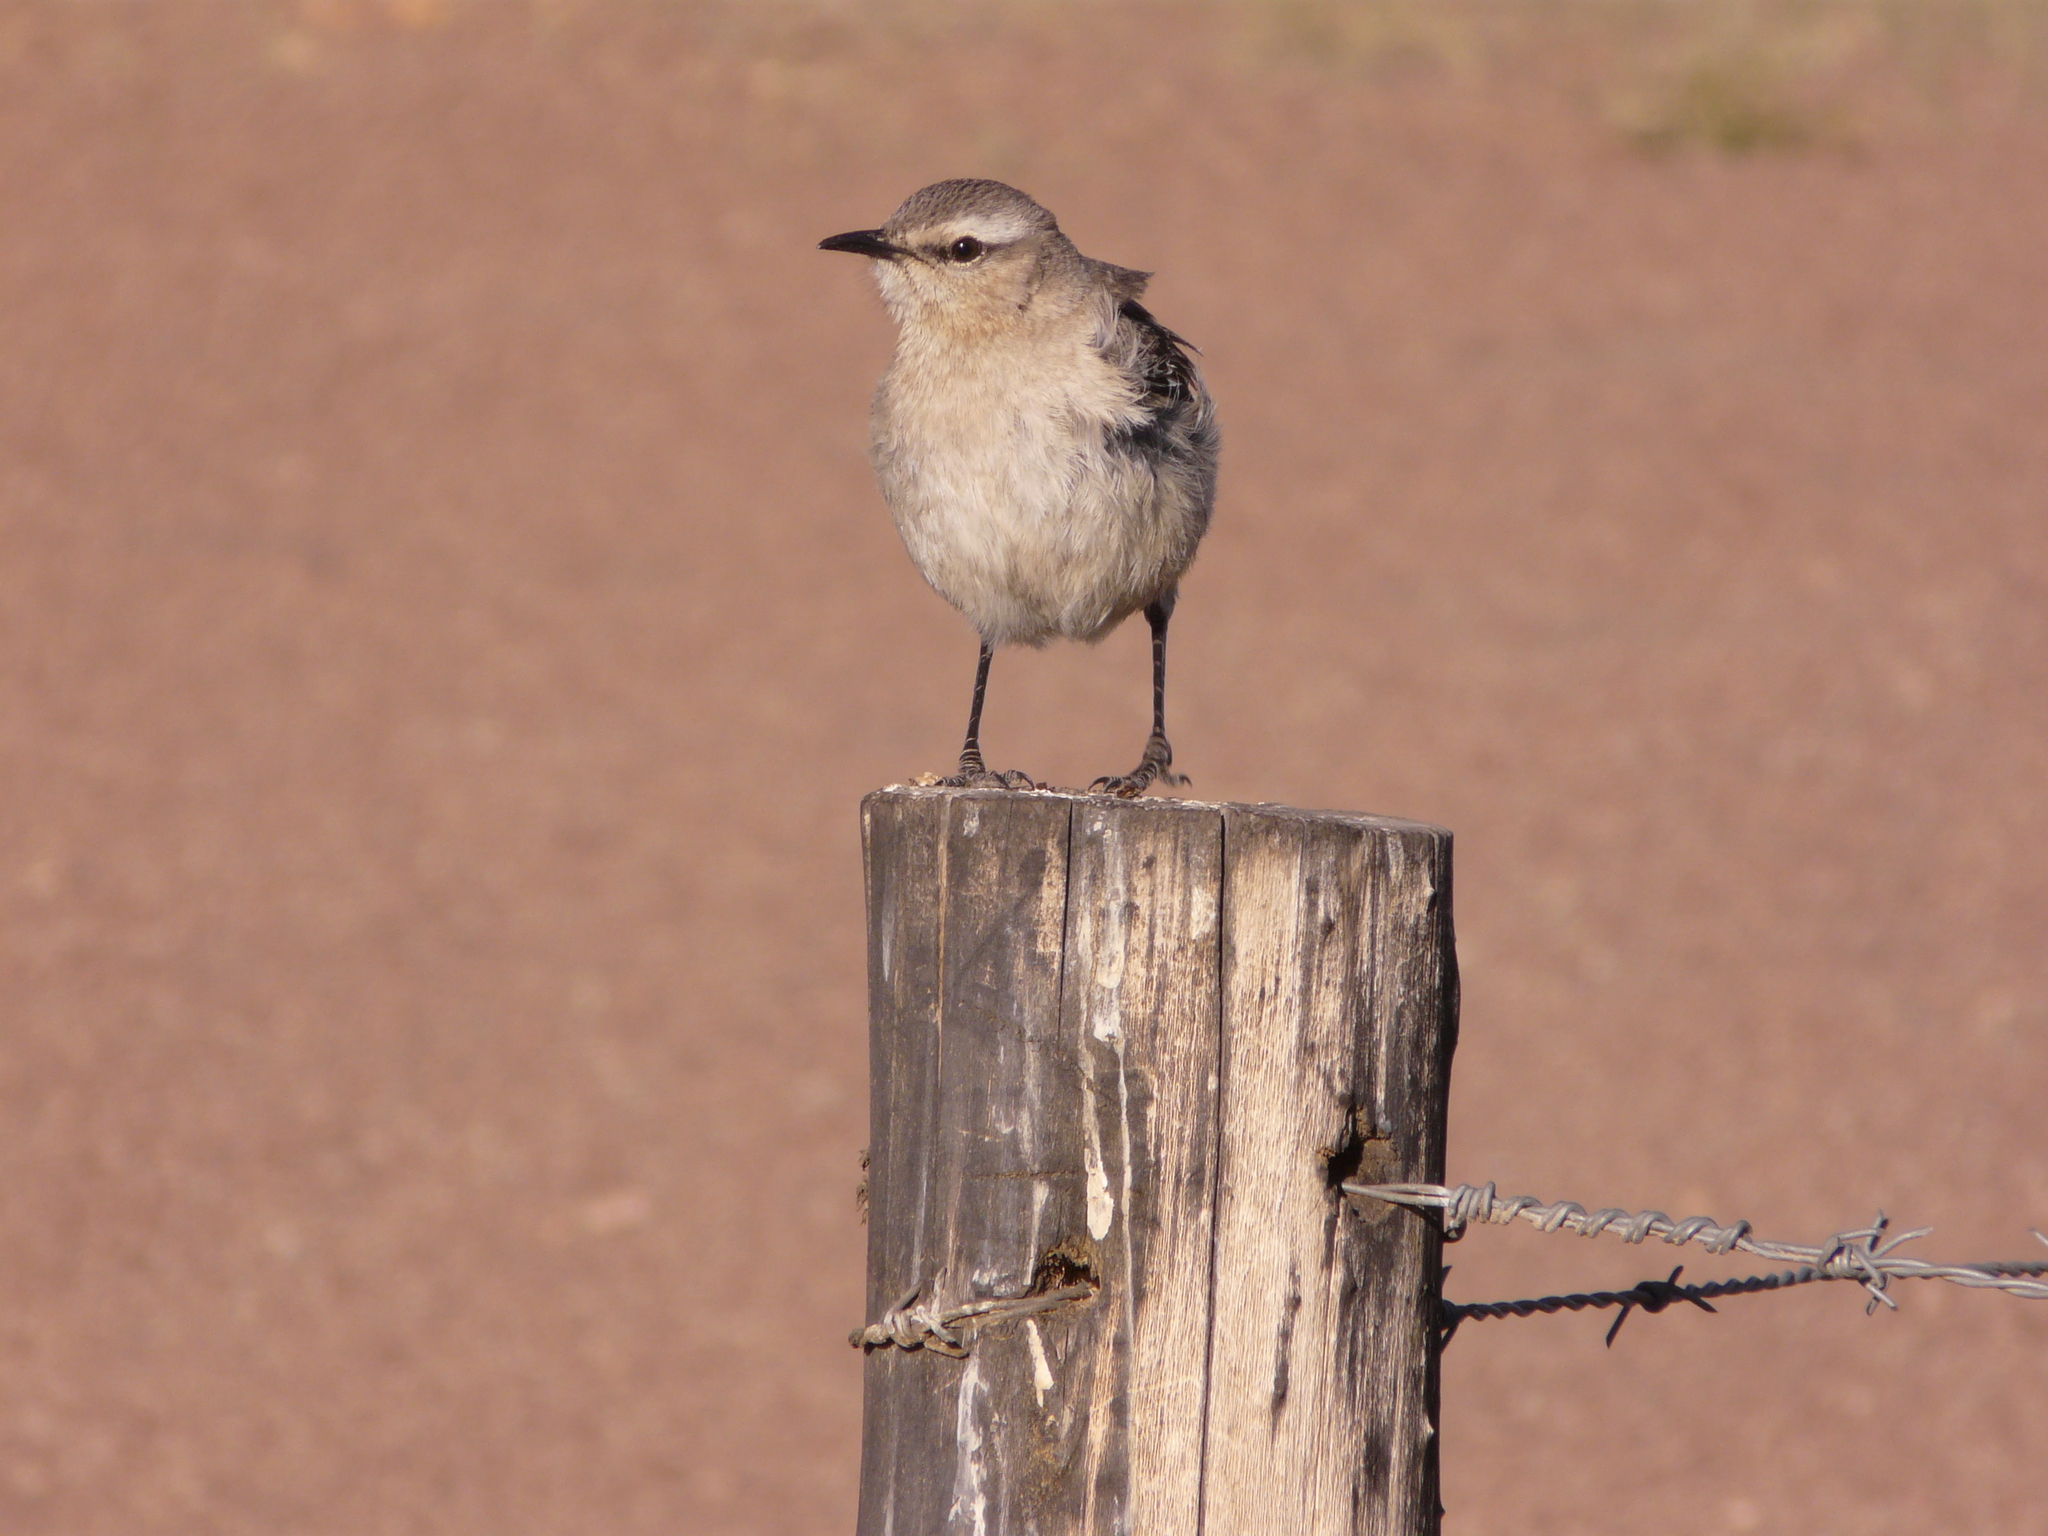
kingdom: Animalia
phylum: Chordata
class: Aves
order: Passeriformes
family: Mimidae
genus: Mimus
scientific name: Mimus patagonicus
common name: Patagonian mockingbird
